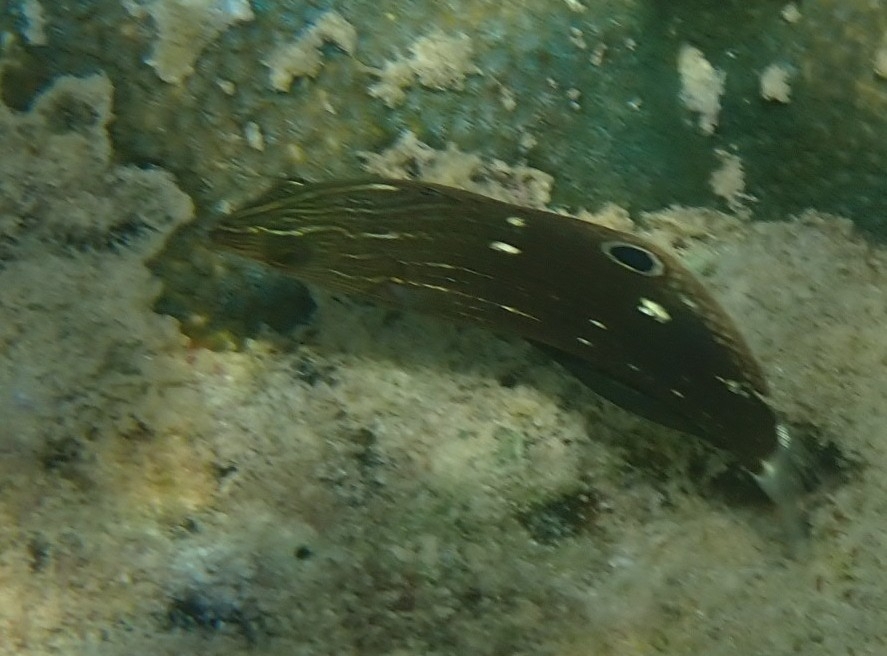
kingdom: Animalia
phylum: Chordata
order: Perciformes
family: Labridae
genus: Halichoeres
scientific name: Halichoeres
